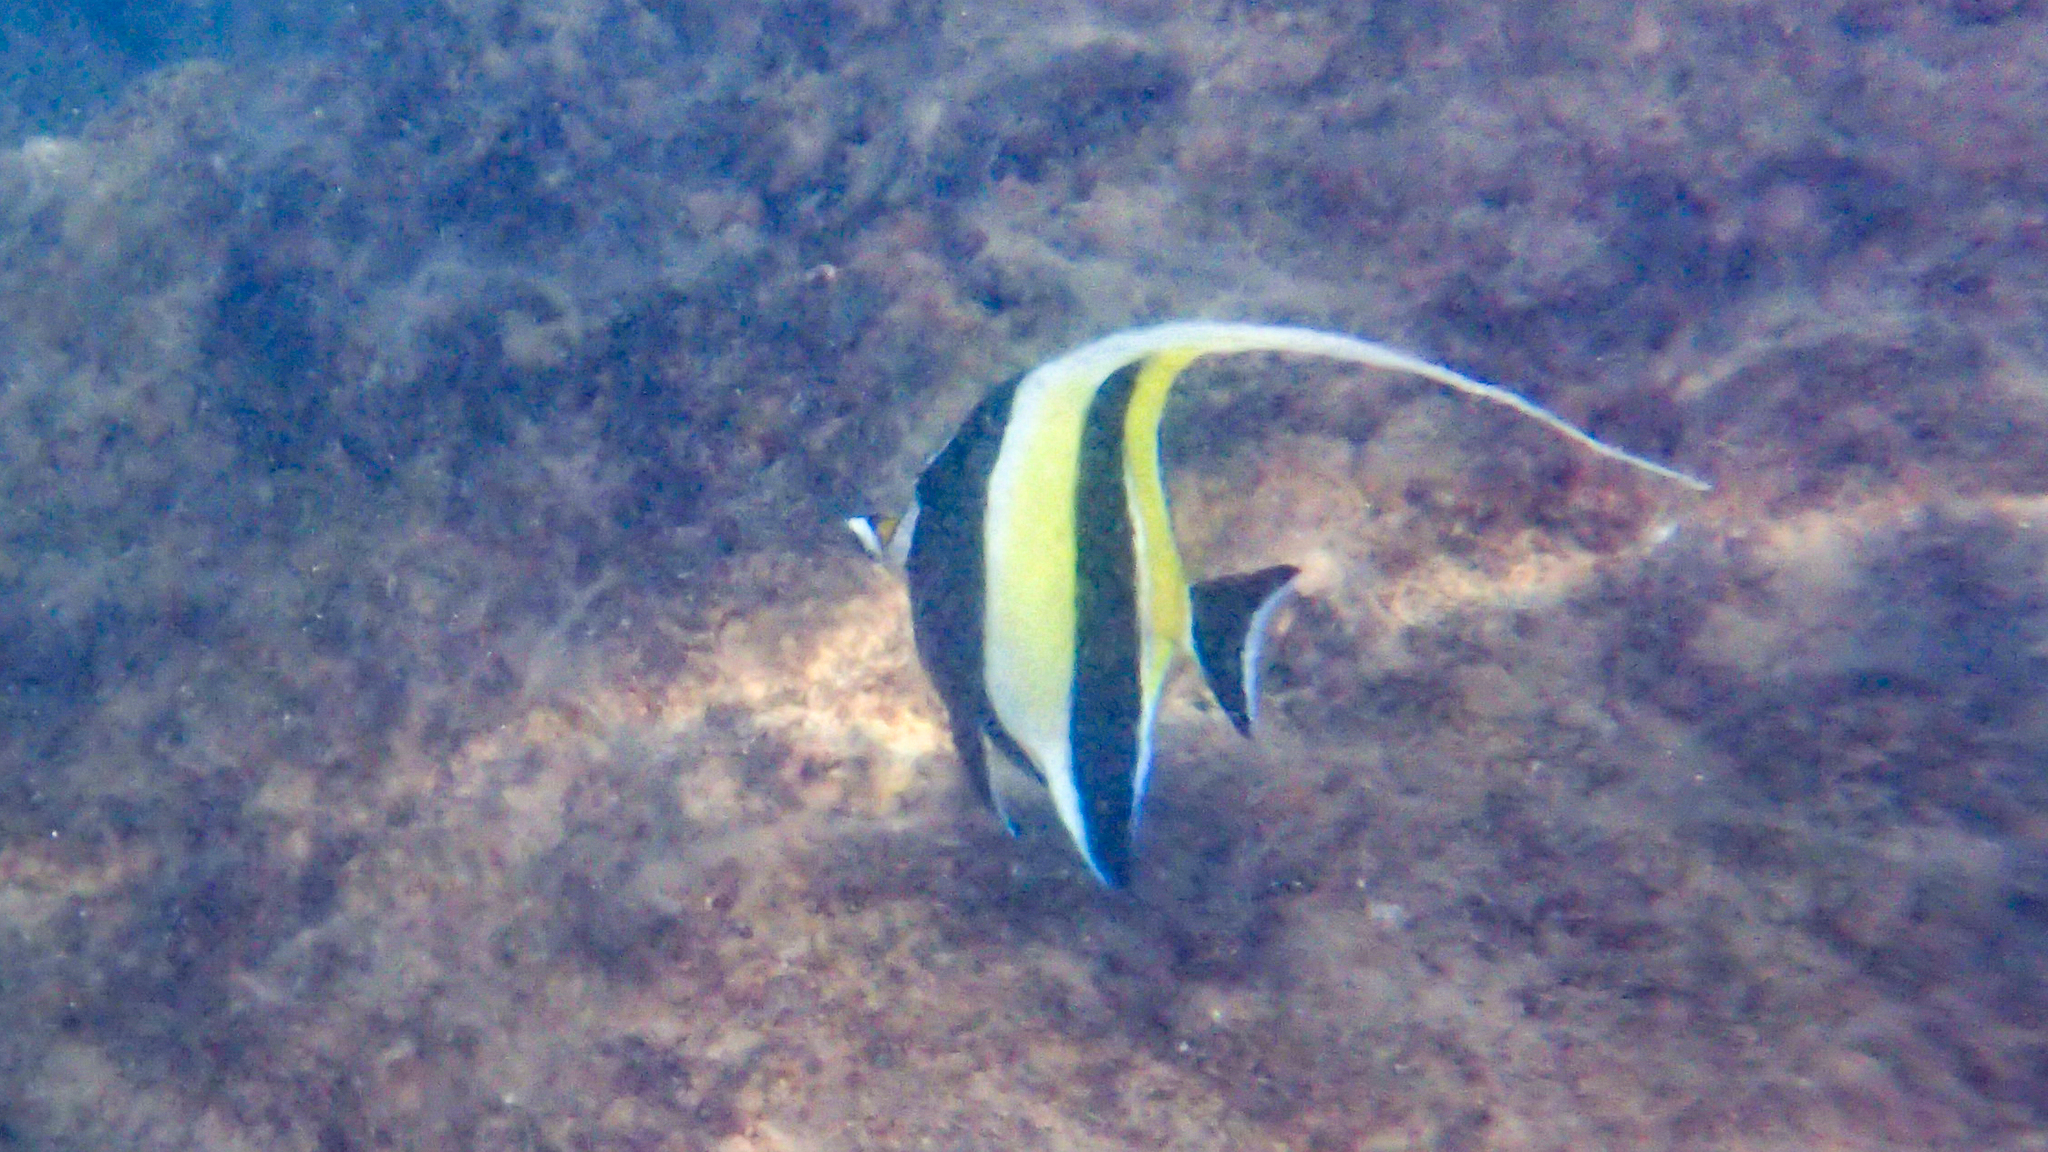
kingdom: Animalia
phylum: Chordata
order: Perciformes
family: Zanclidae
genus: Zanclus
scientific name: Zanclus cornutus
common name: Moorish idol
